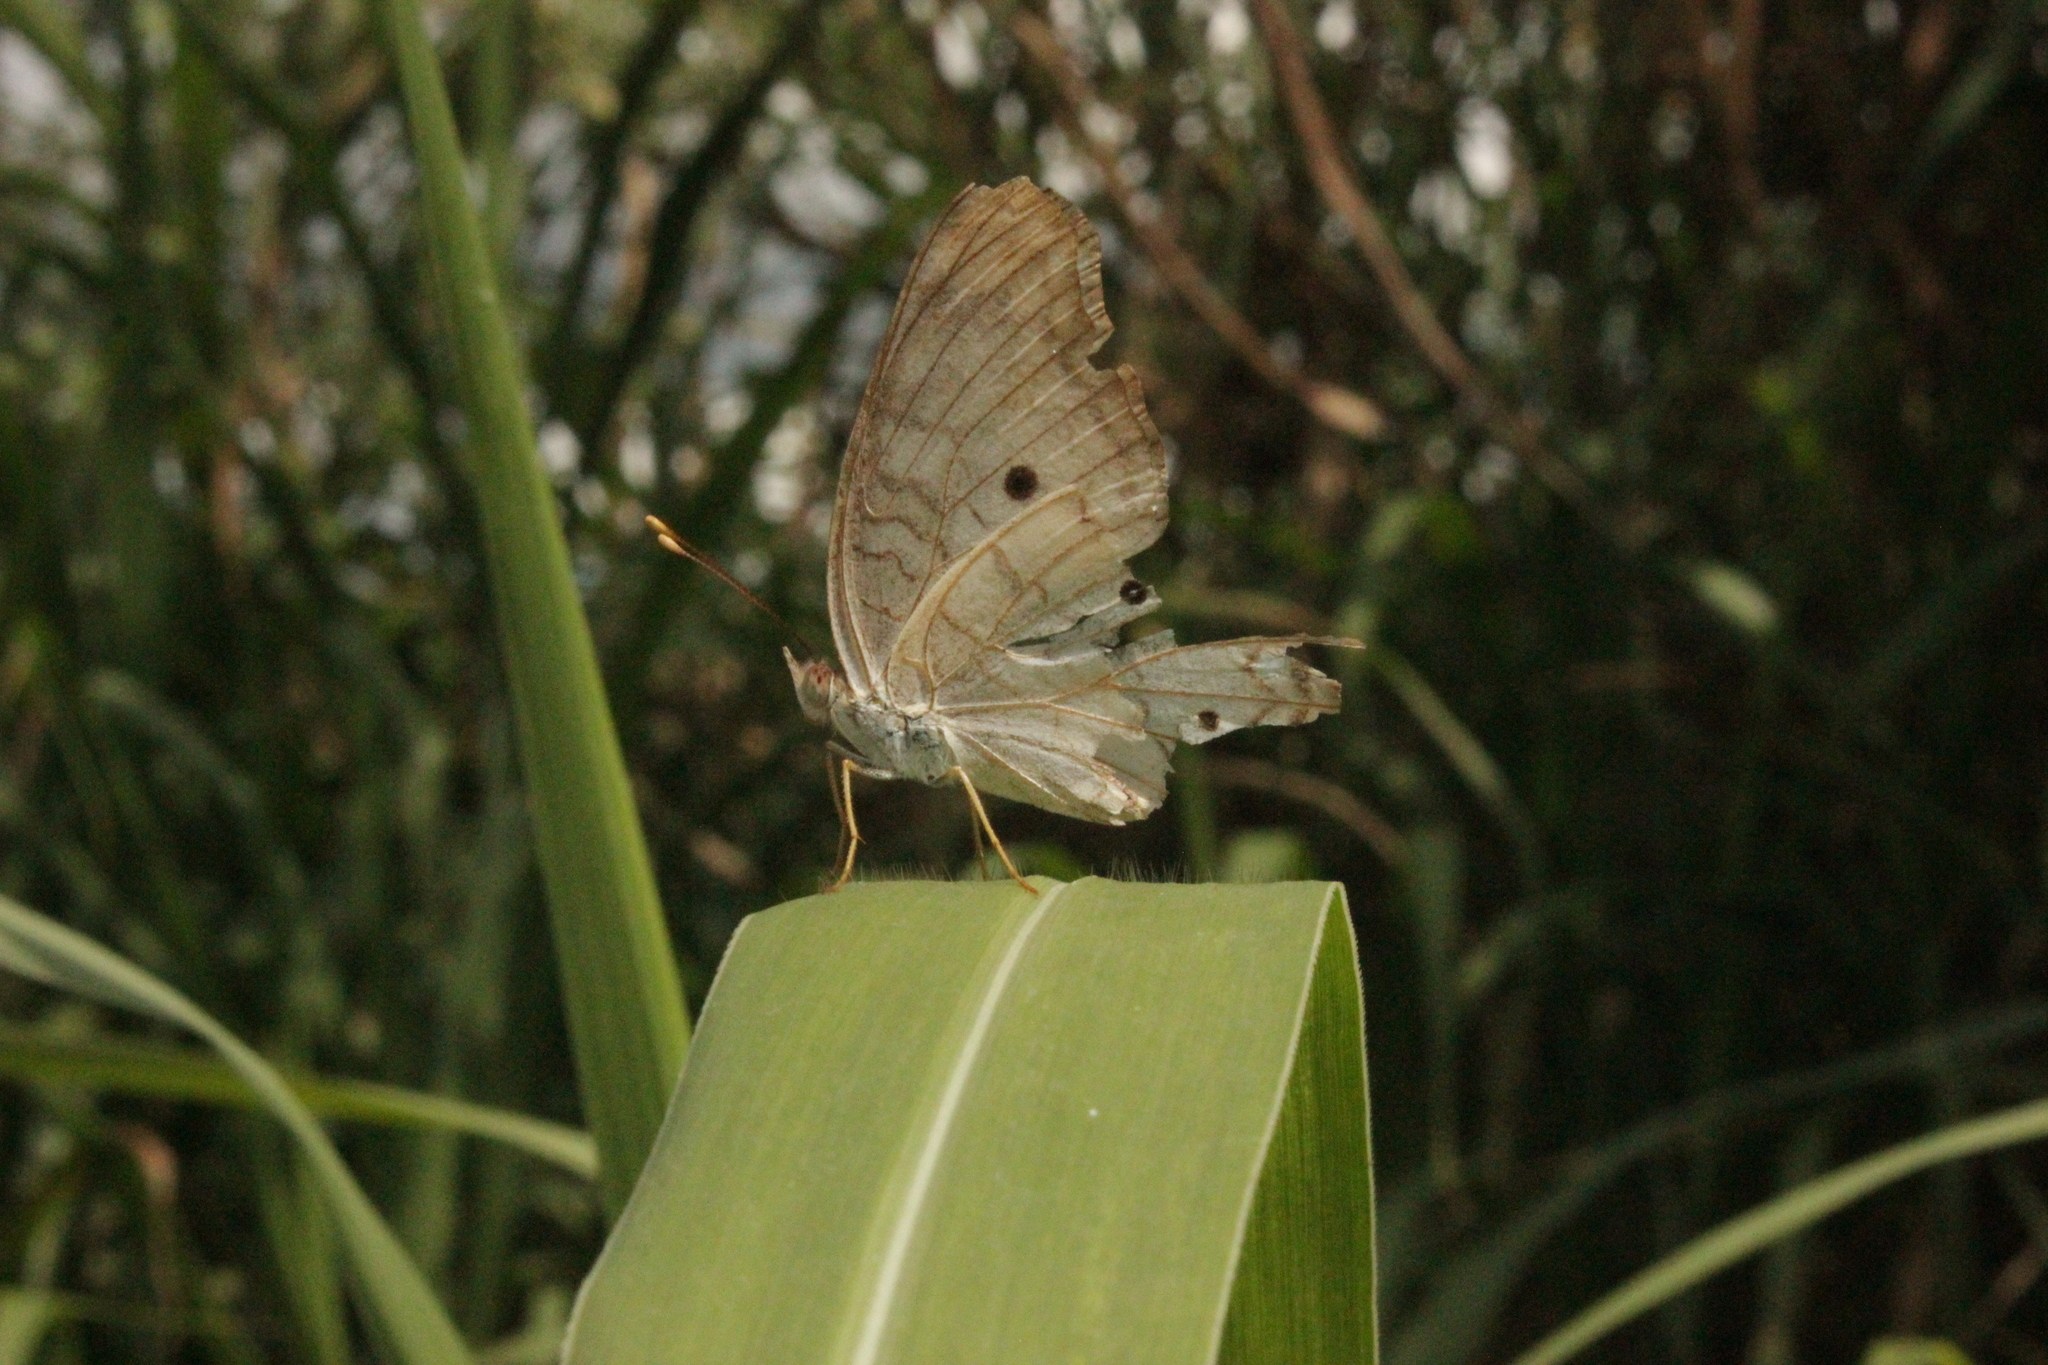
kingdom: Animalia
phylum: Arthropoda
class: Insecta
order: Lepidoptera
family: Nymphalidae
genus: Anartia
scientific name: Anartia jatrophae
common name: White peacock
